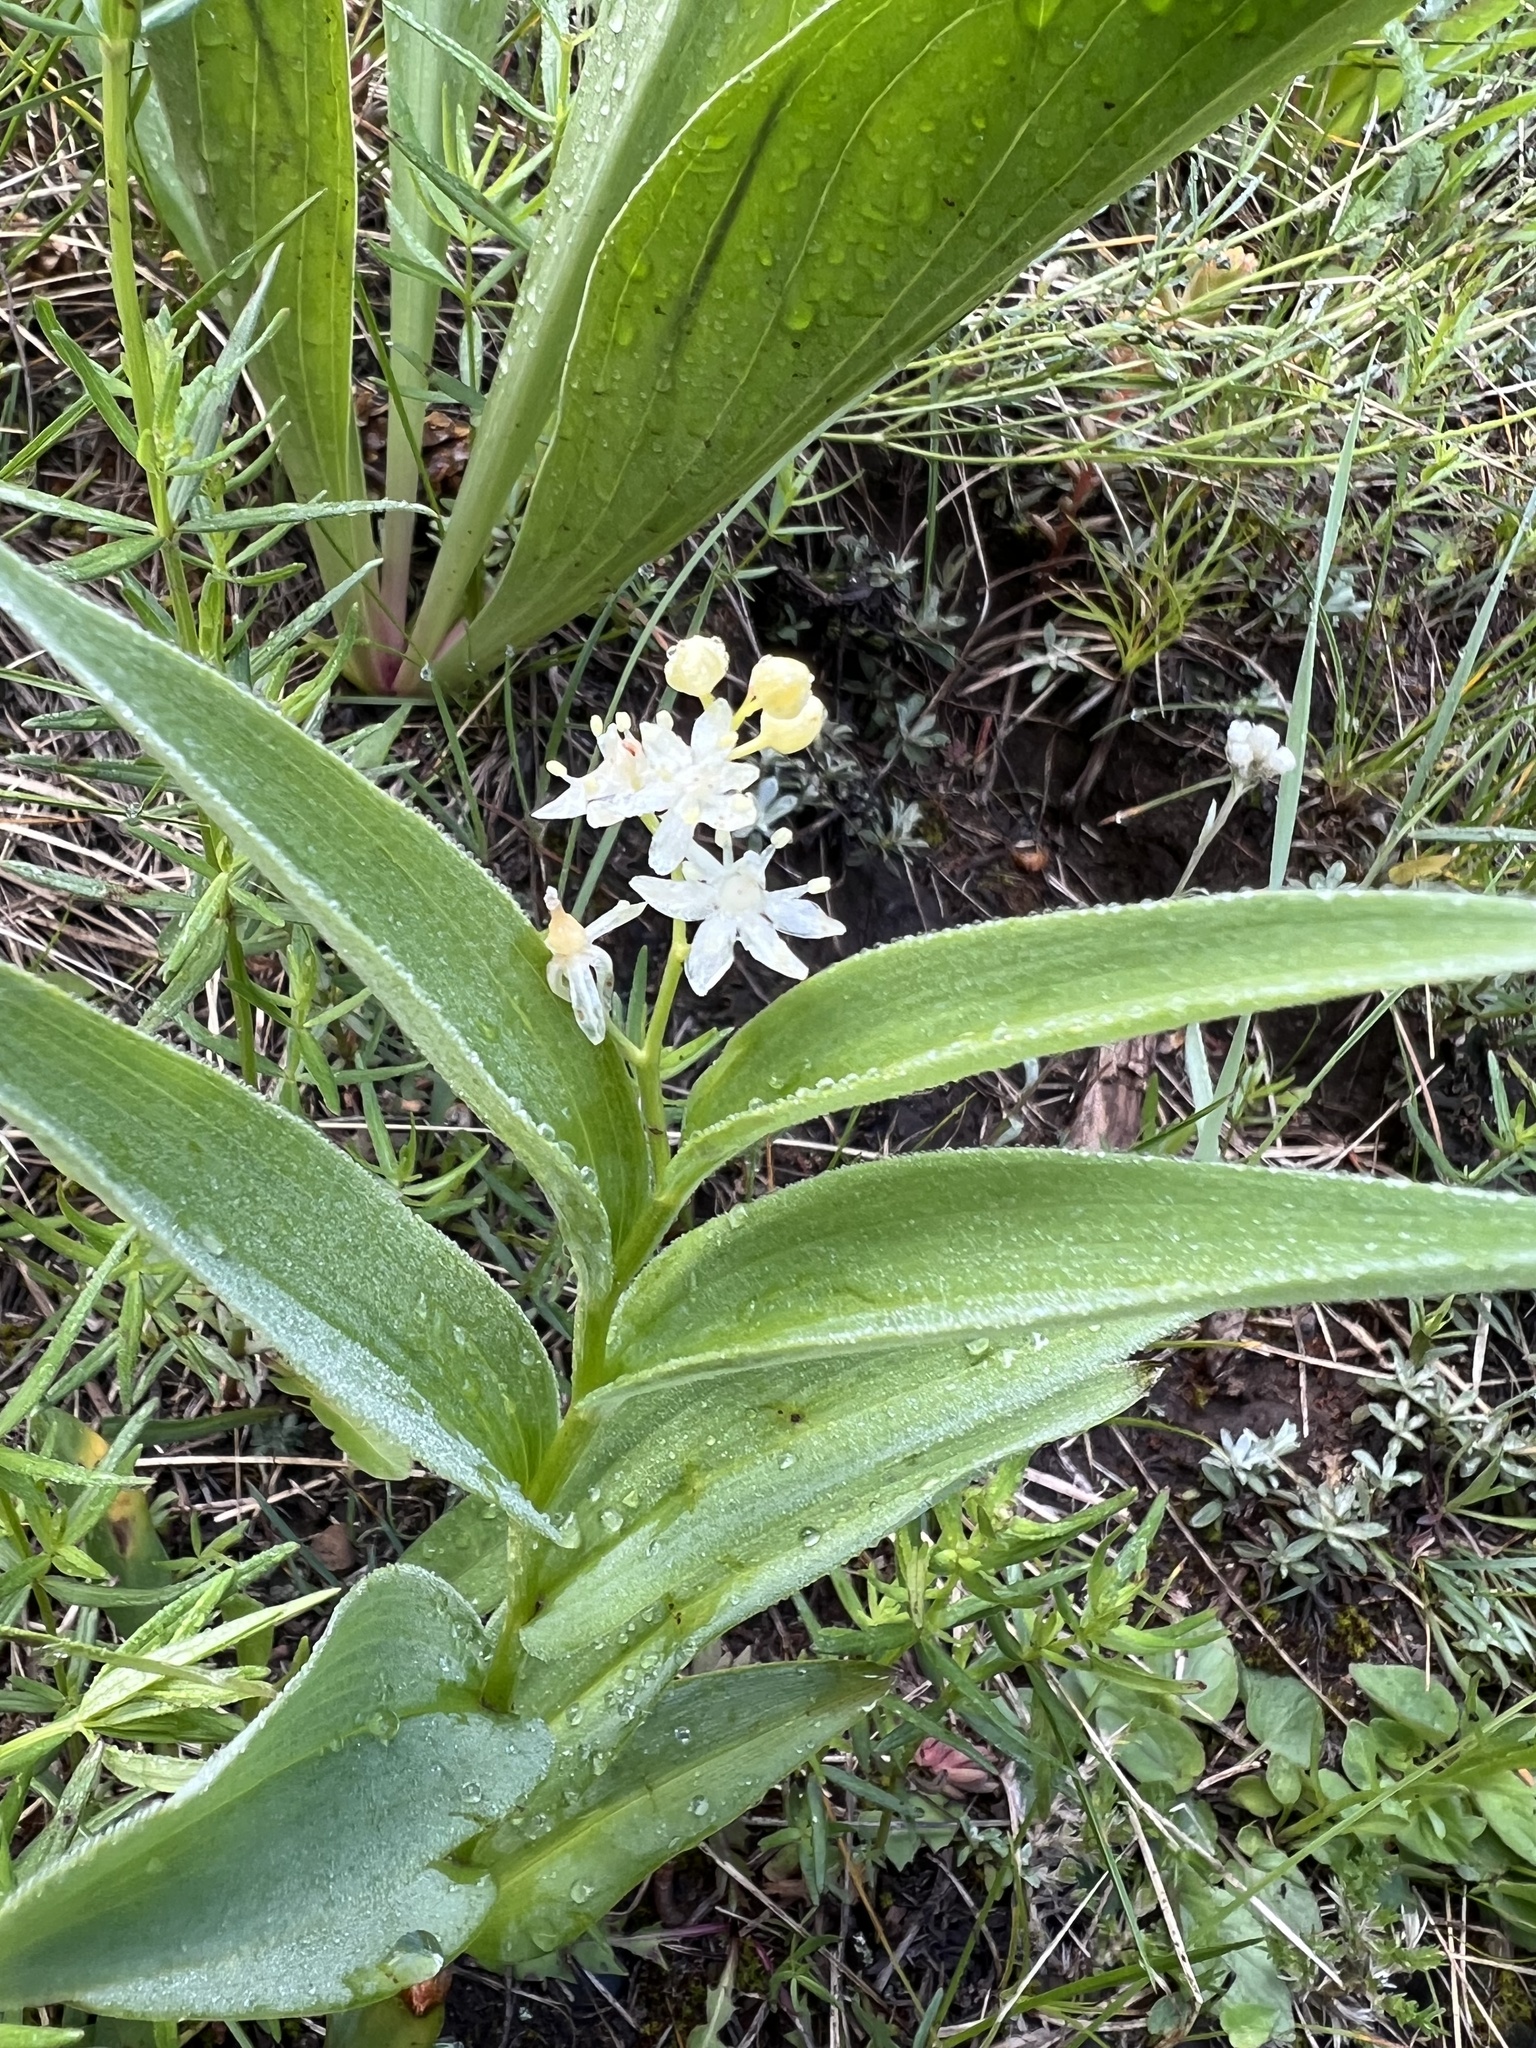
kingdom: Plantae
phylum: Tracheophyta
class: Liliopsida
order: Asparagales
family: Asparagaceae
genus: Maianthemum
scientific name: Maianthemum stellatum
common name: Little false solomon's seal
